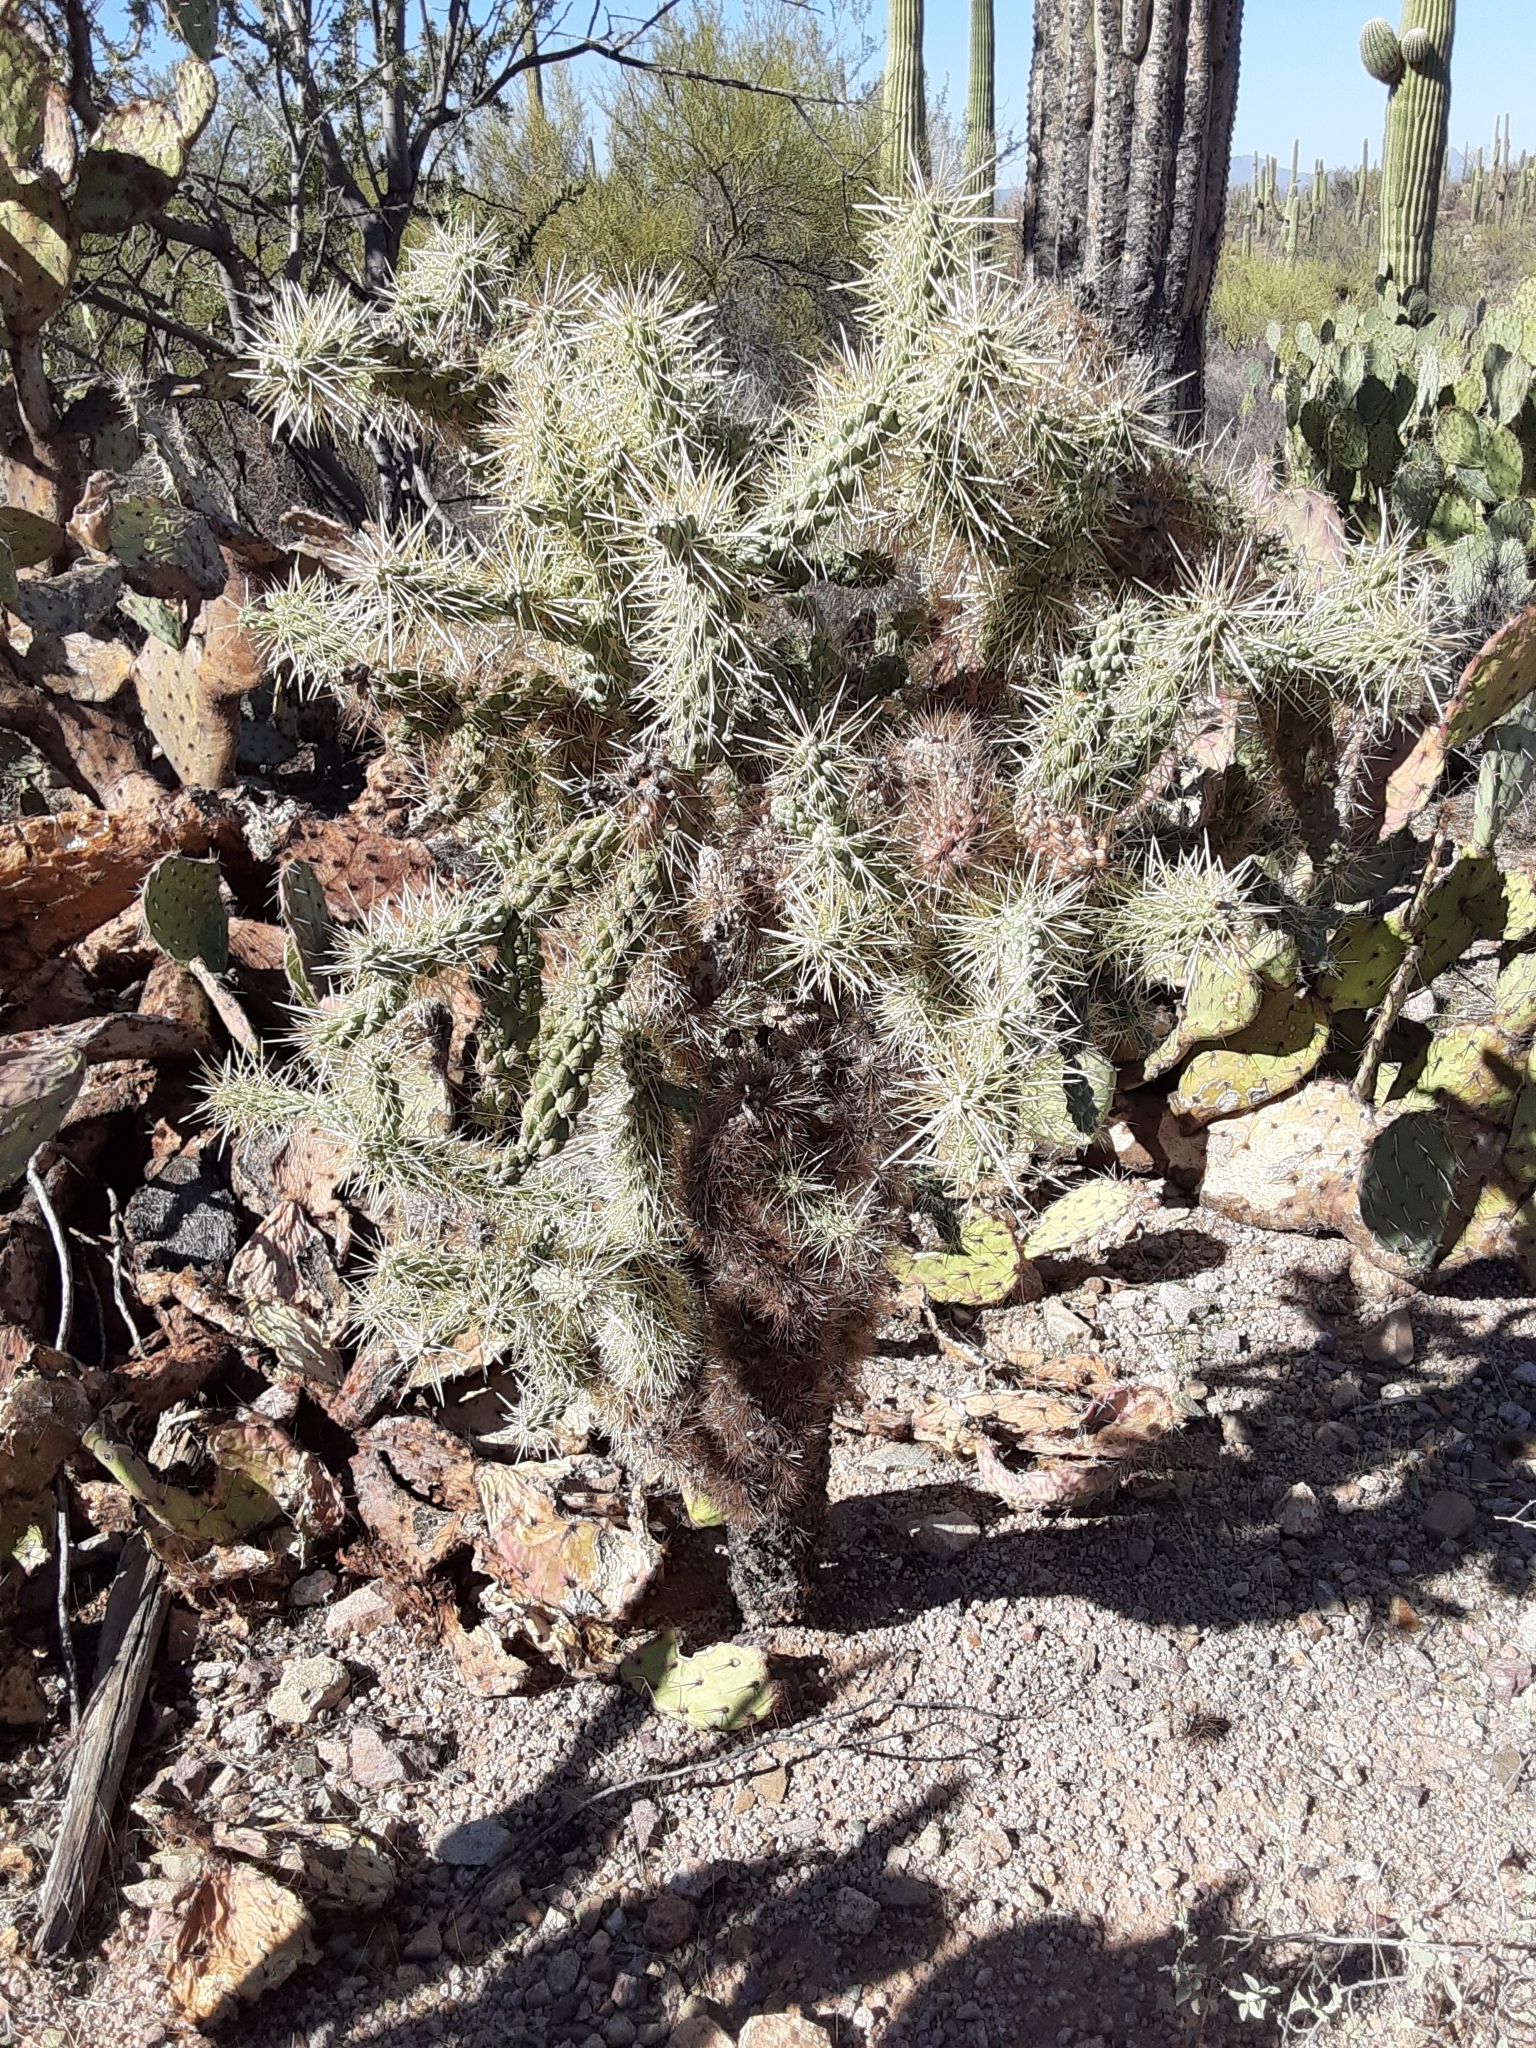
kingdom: Plantae
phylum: Tracheophyta
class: Magnoliopsida
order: Caryophyllales
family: Cactaceae
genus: Cylindropuntia
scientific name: Cylindropuntia fulgida
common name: Jumping cholla
